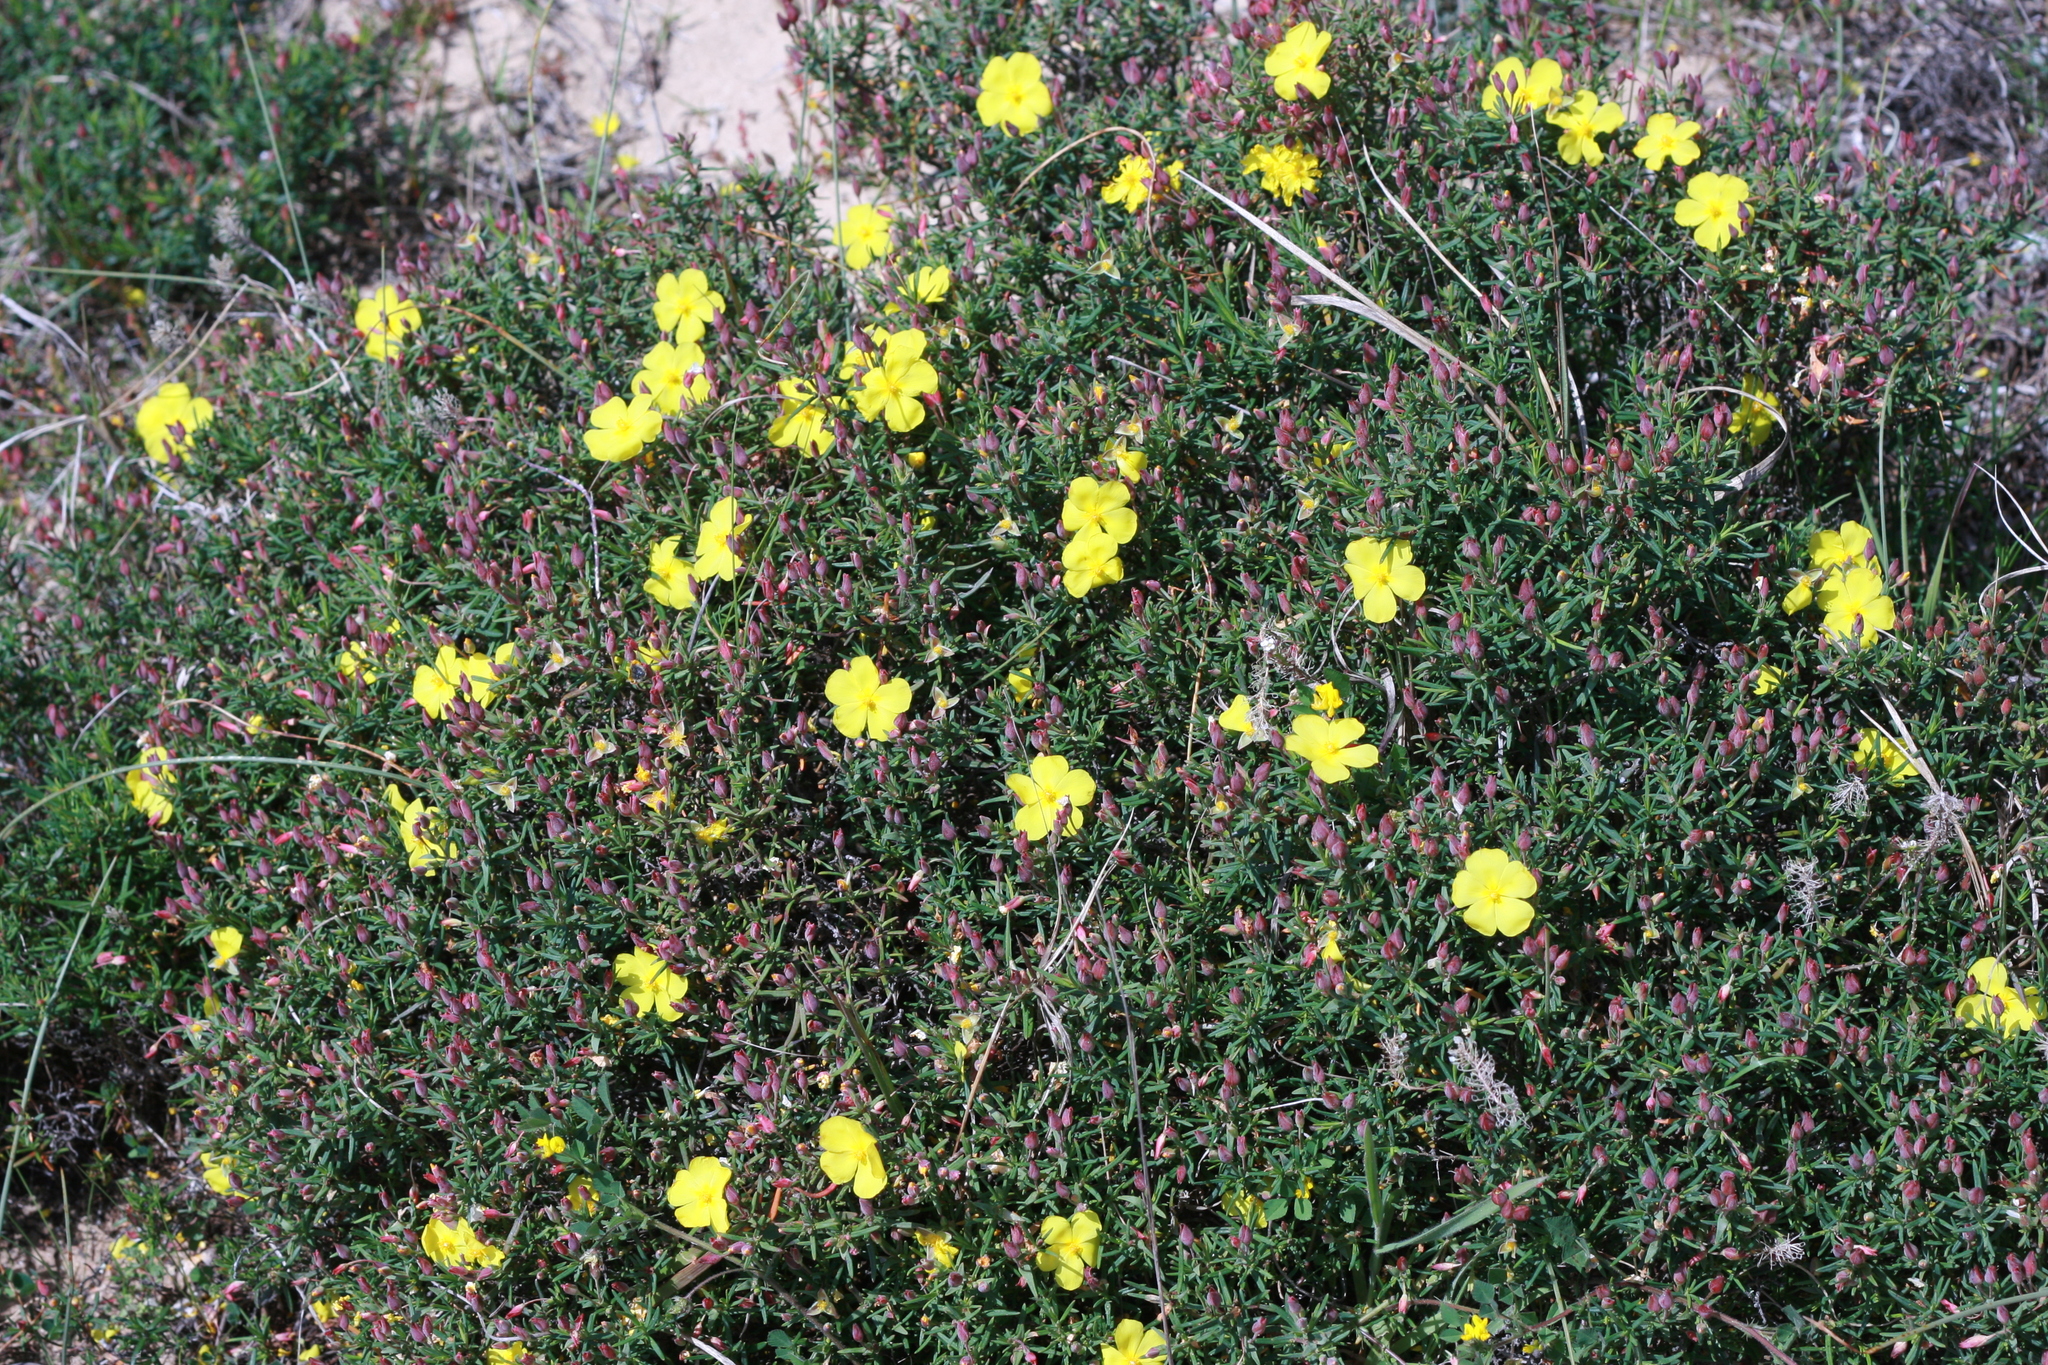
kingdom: Plantae
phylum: Tracheophyta
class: Magnoliopsida
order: Malvales
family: Cistaceae
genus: Halimium
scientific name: Halimium calycinum
